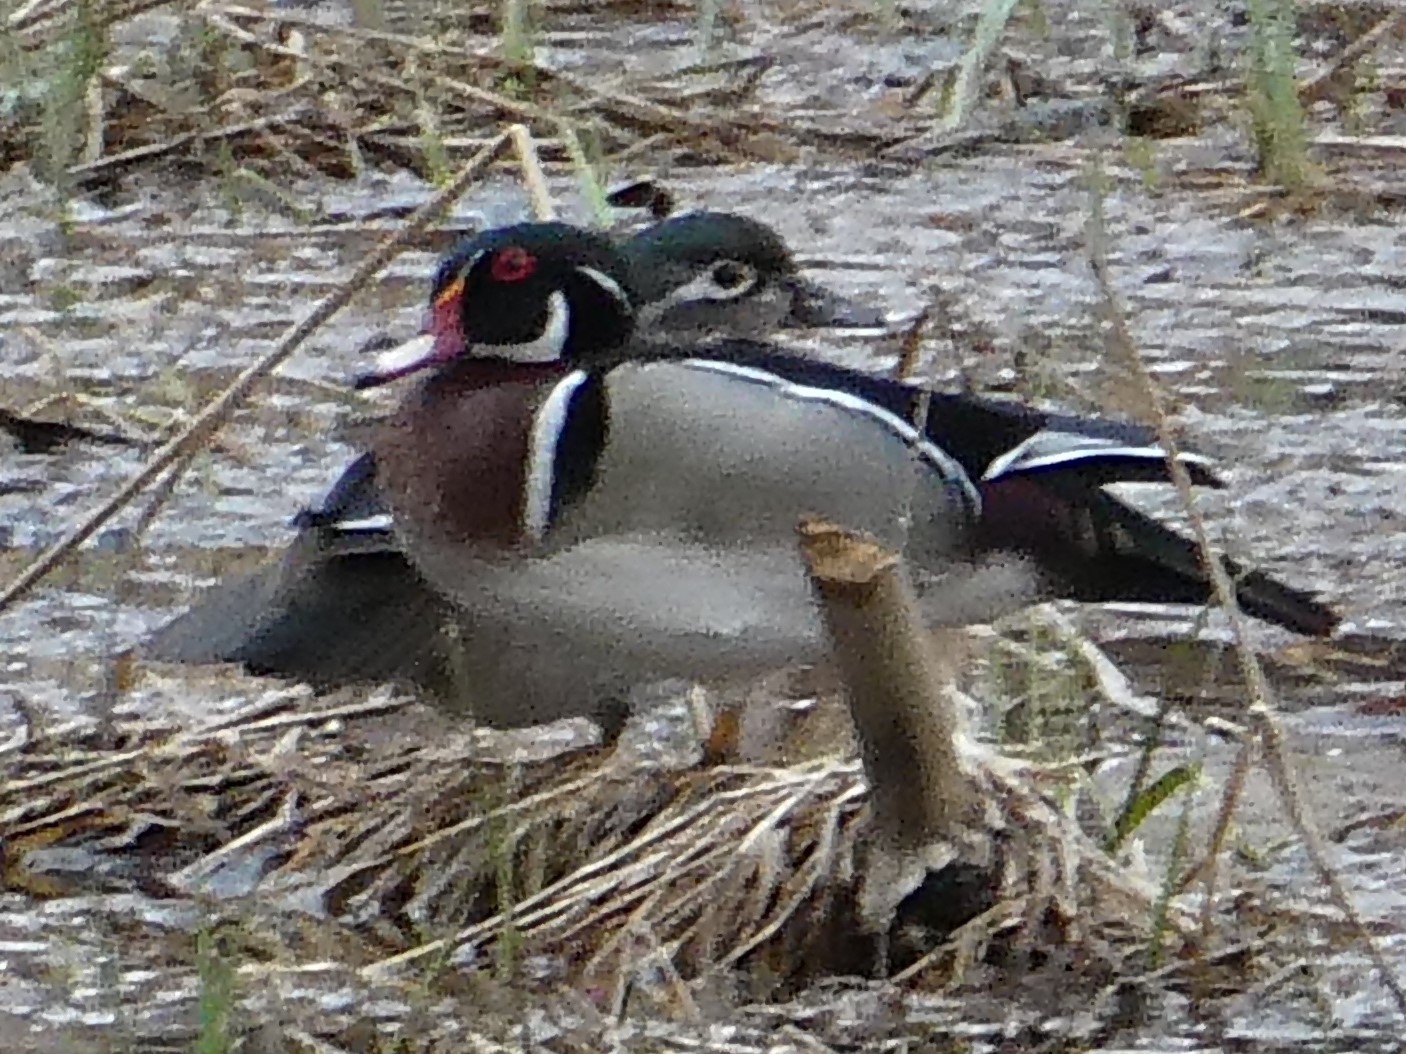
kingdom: Animalia
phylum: Chordata
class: Aves
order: Anseriformes
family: Anatidae
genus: Aix
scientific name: Aix sponsa
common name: Wood duck
